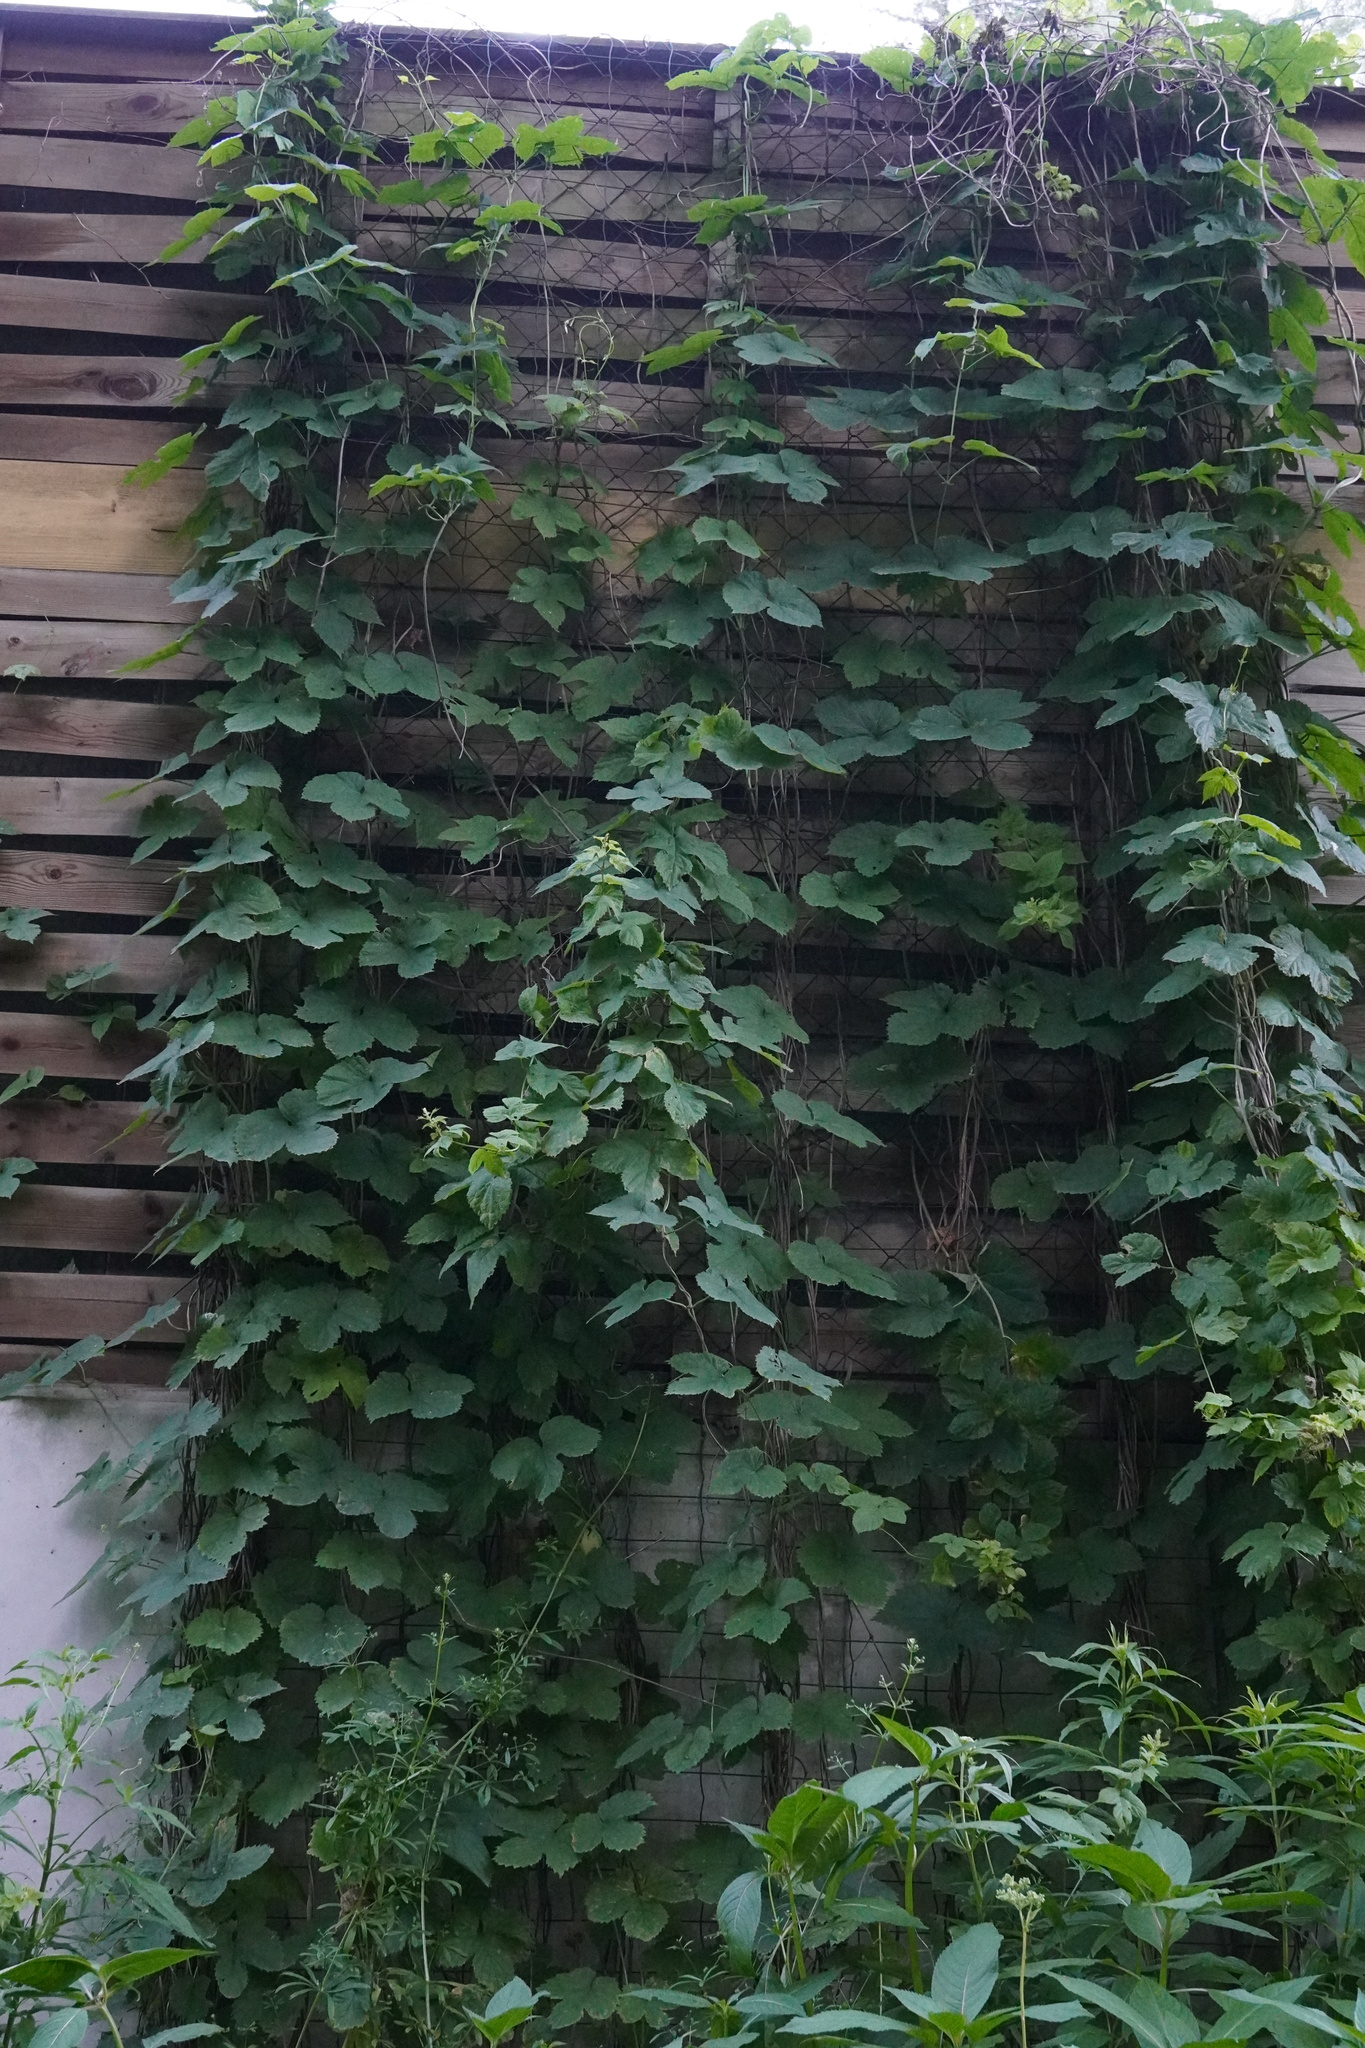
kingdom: Plantae
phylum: Tracheophyta
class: Magnoliopsida
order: Rosales
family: Cannabaceae
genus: Humulus
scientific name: Humulus lupulus
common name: Hop
